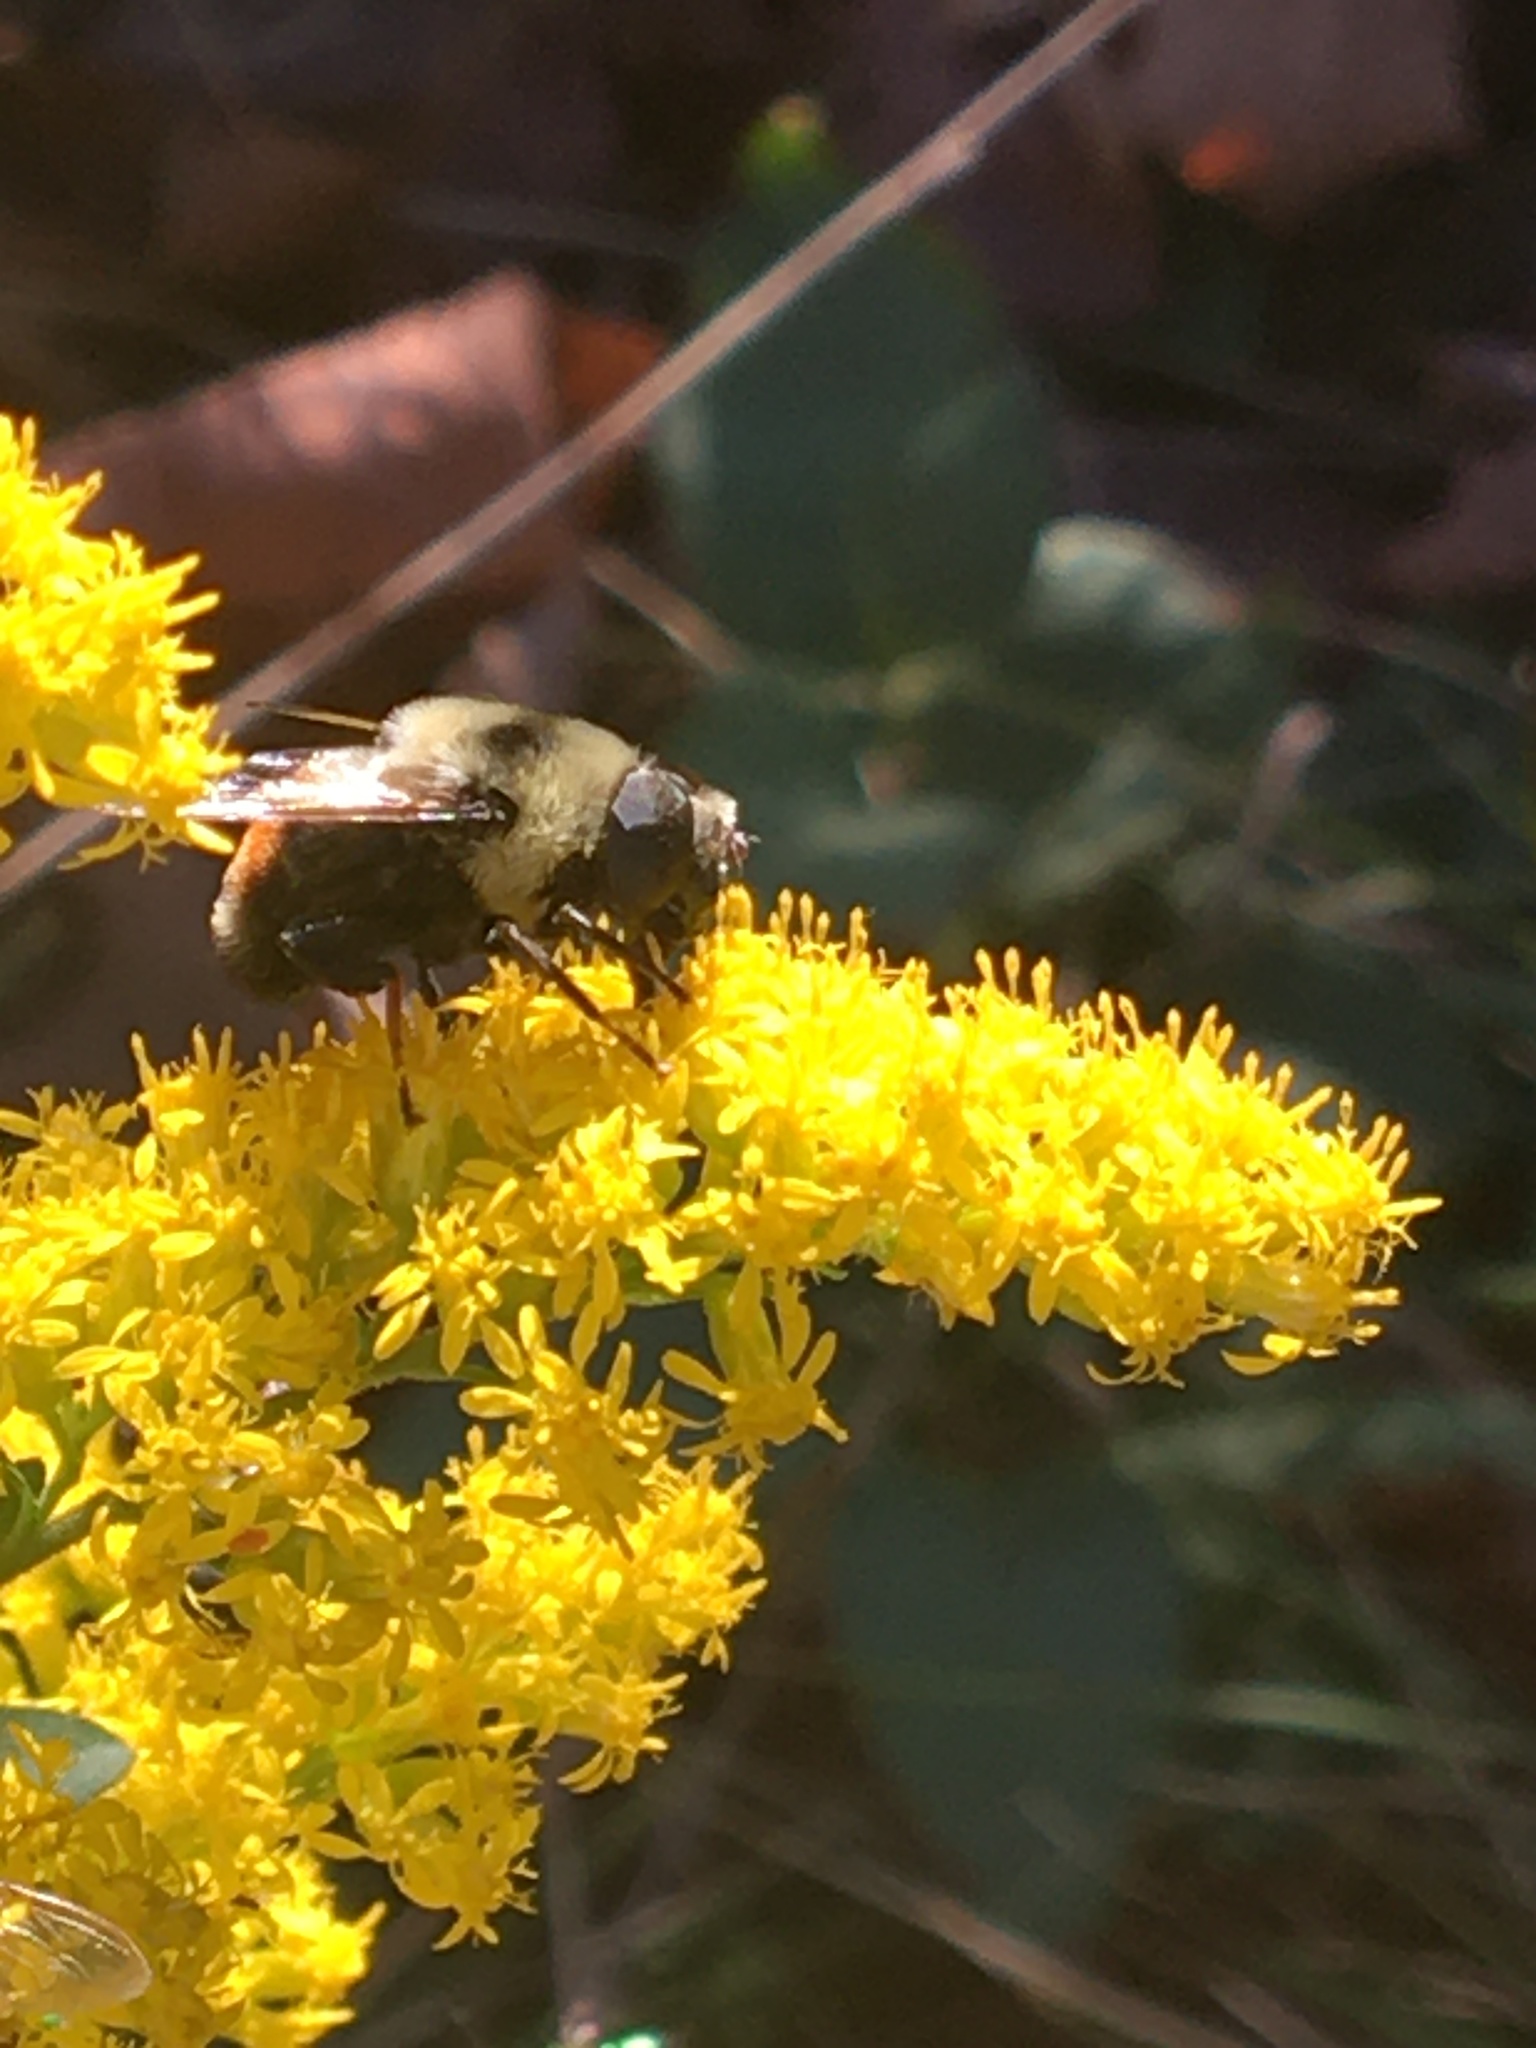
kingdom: Animalia
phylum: Arthropoda
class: Insecta
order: Diptera
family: Syrphidae
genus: Eristalis
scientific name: Eristalis flavipes
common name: Orange-legged drone fly
